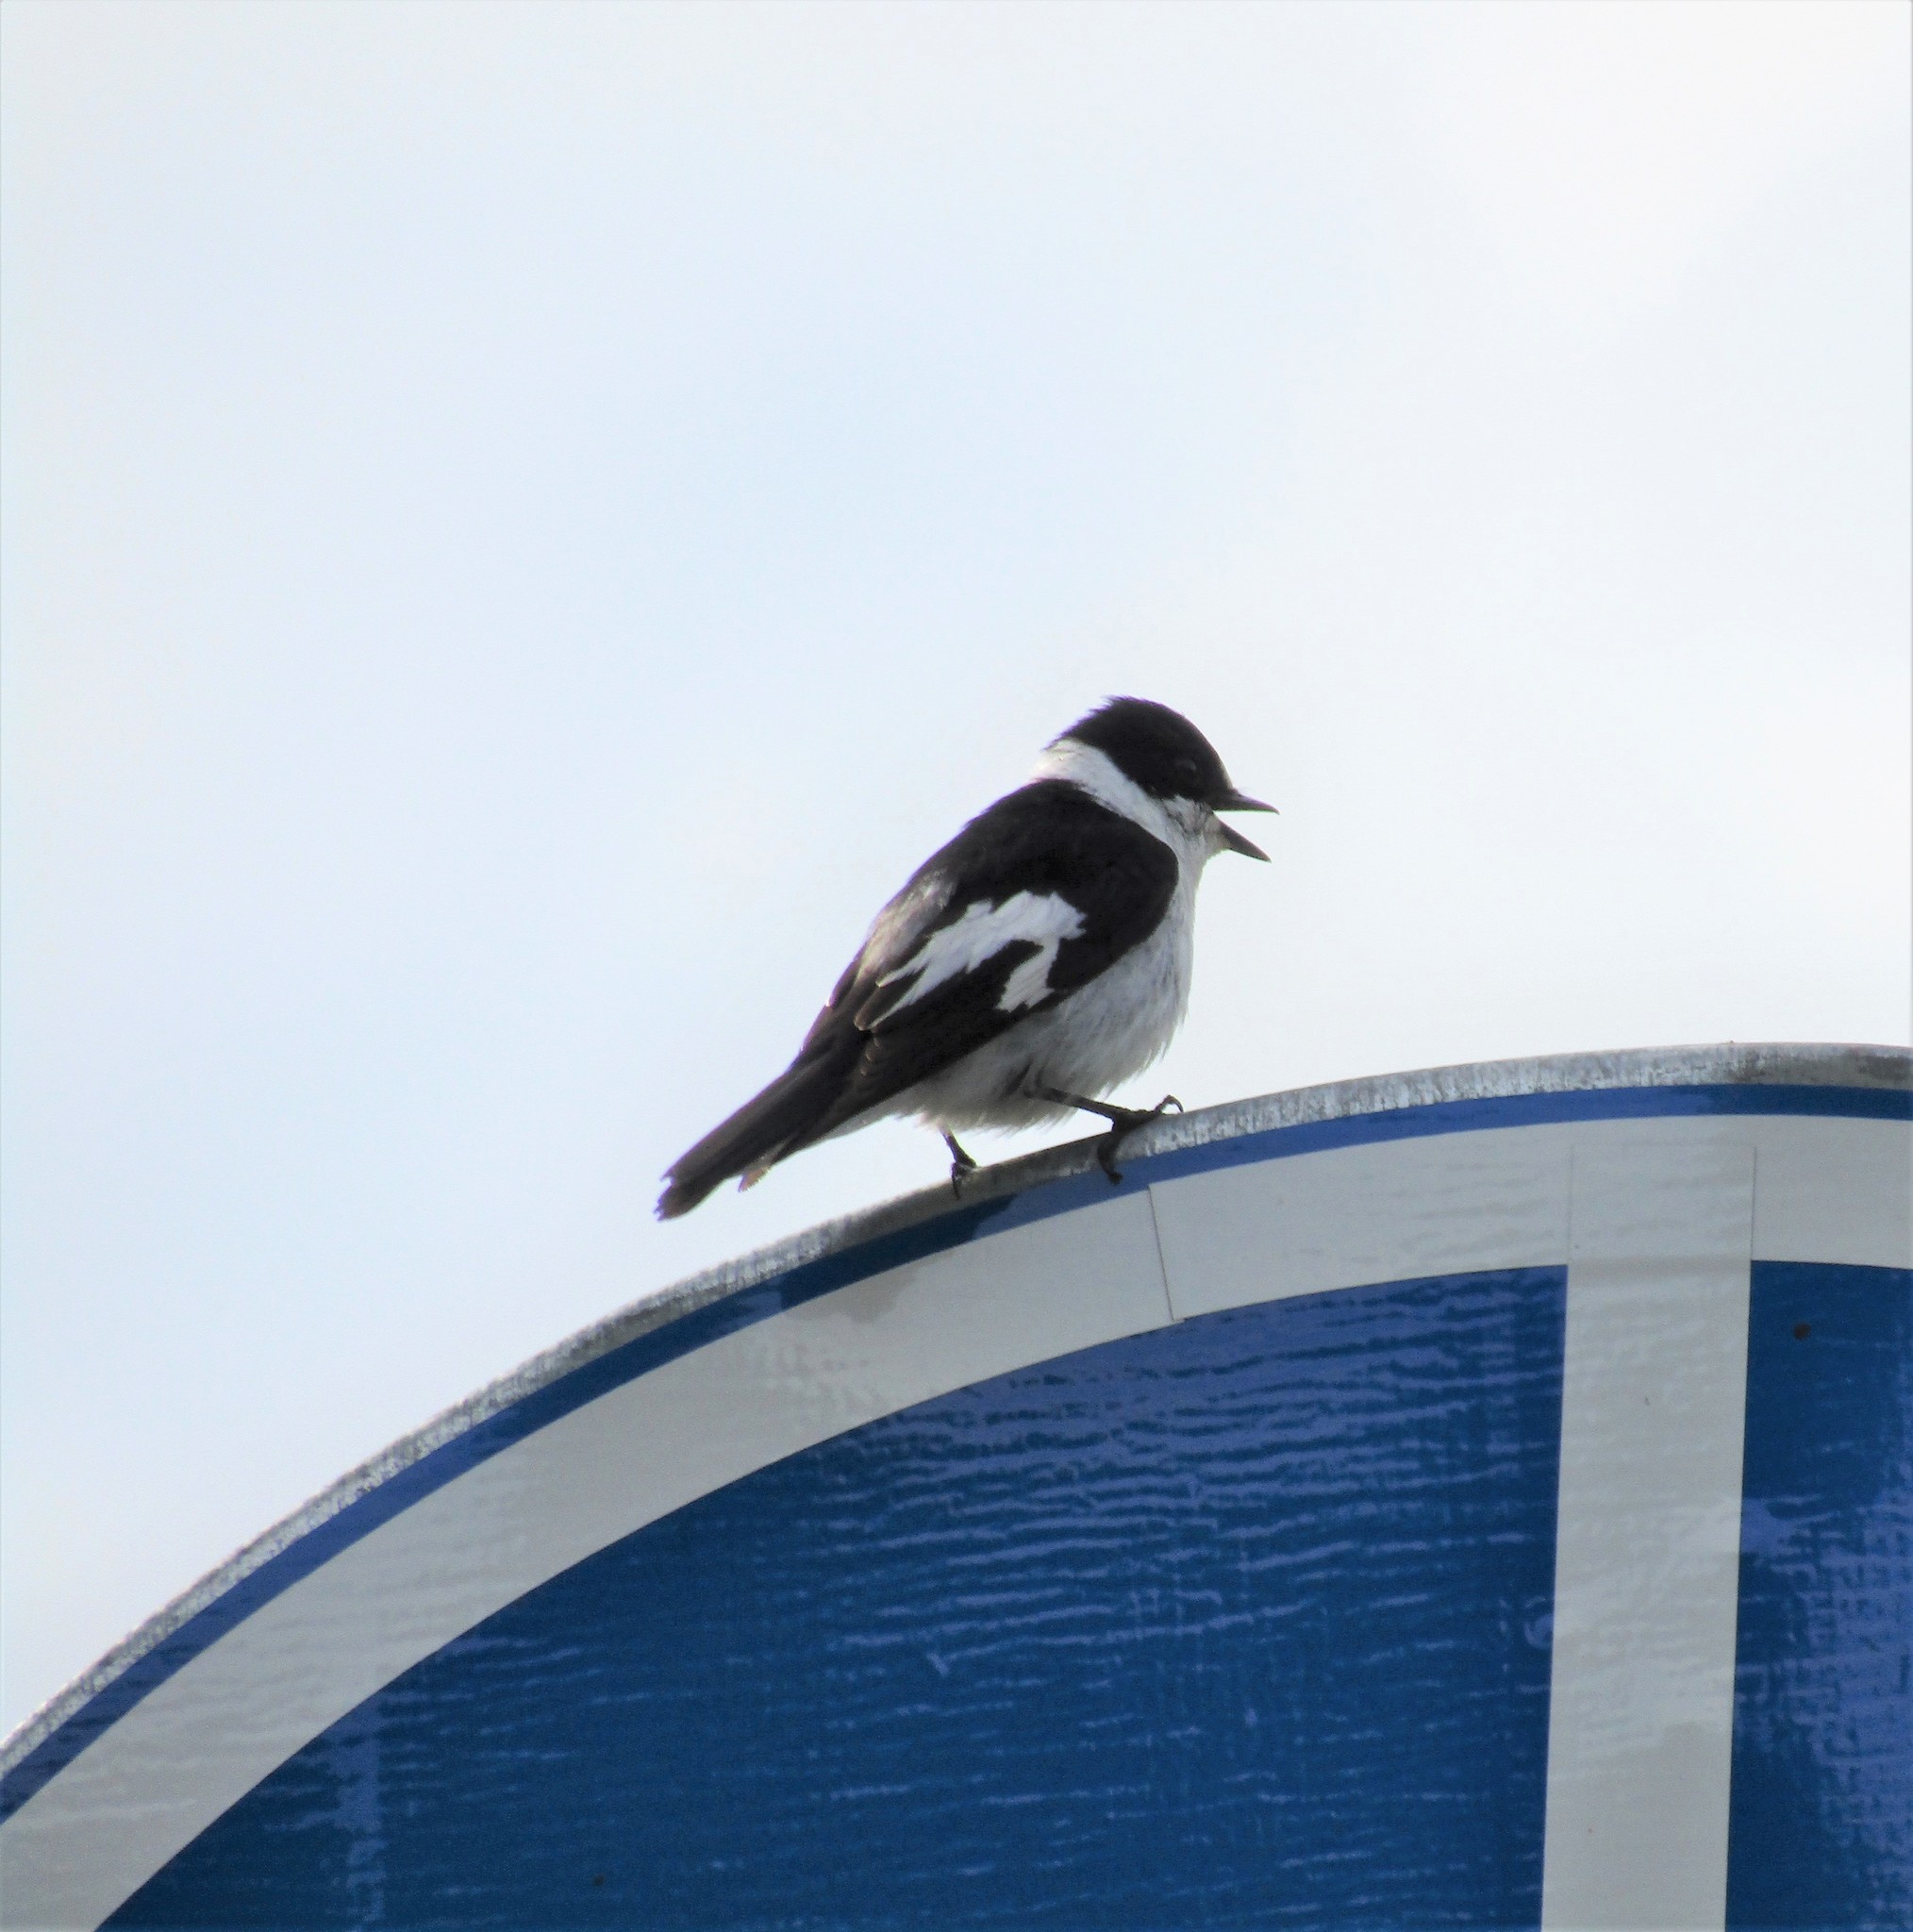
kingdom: Animalia
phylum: Chordata
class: Aves
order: Passeriformes
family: Muscicapidae
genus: Ficedula
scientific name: Ficedula albicollis
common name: Collared flycatcher
